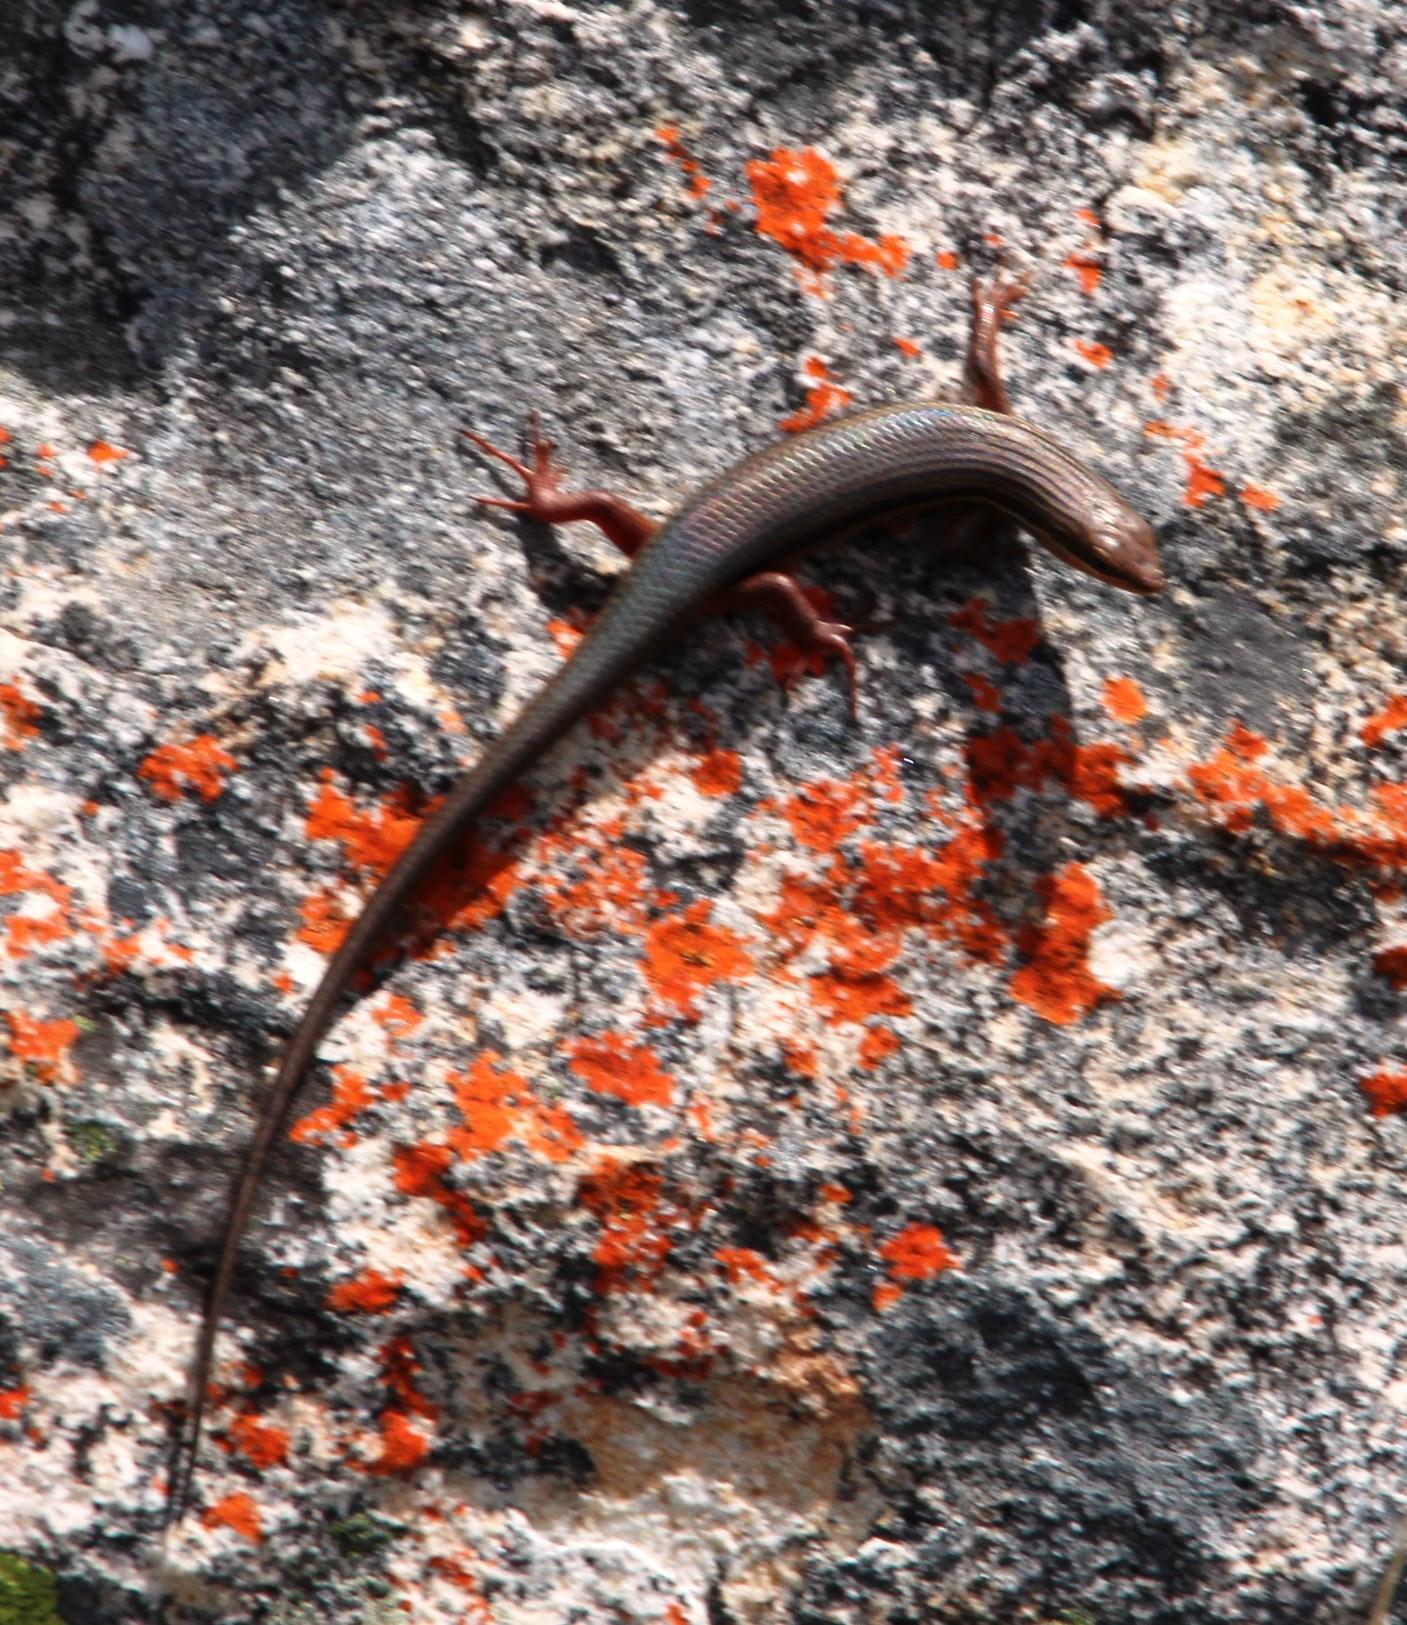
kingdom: Animalia
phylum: Chordata
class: Squamata
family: Scincidae
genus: Trachylepis
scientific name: Trachylepis homalocephala
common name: Red-sided skink
